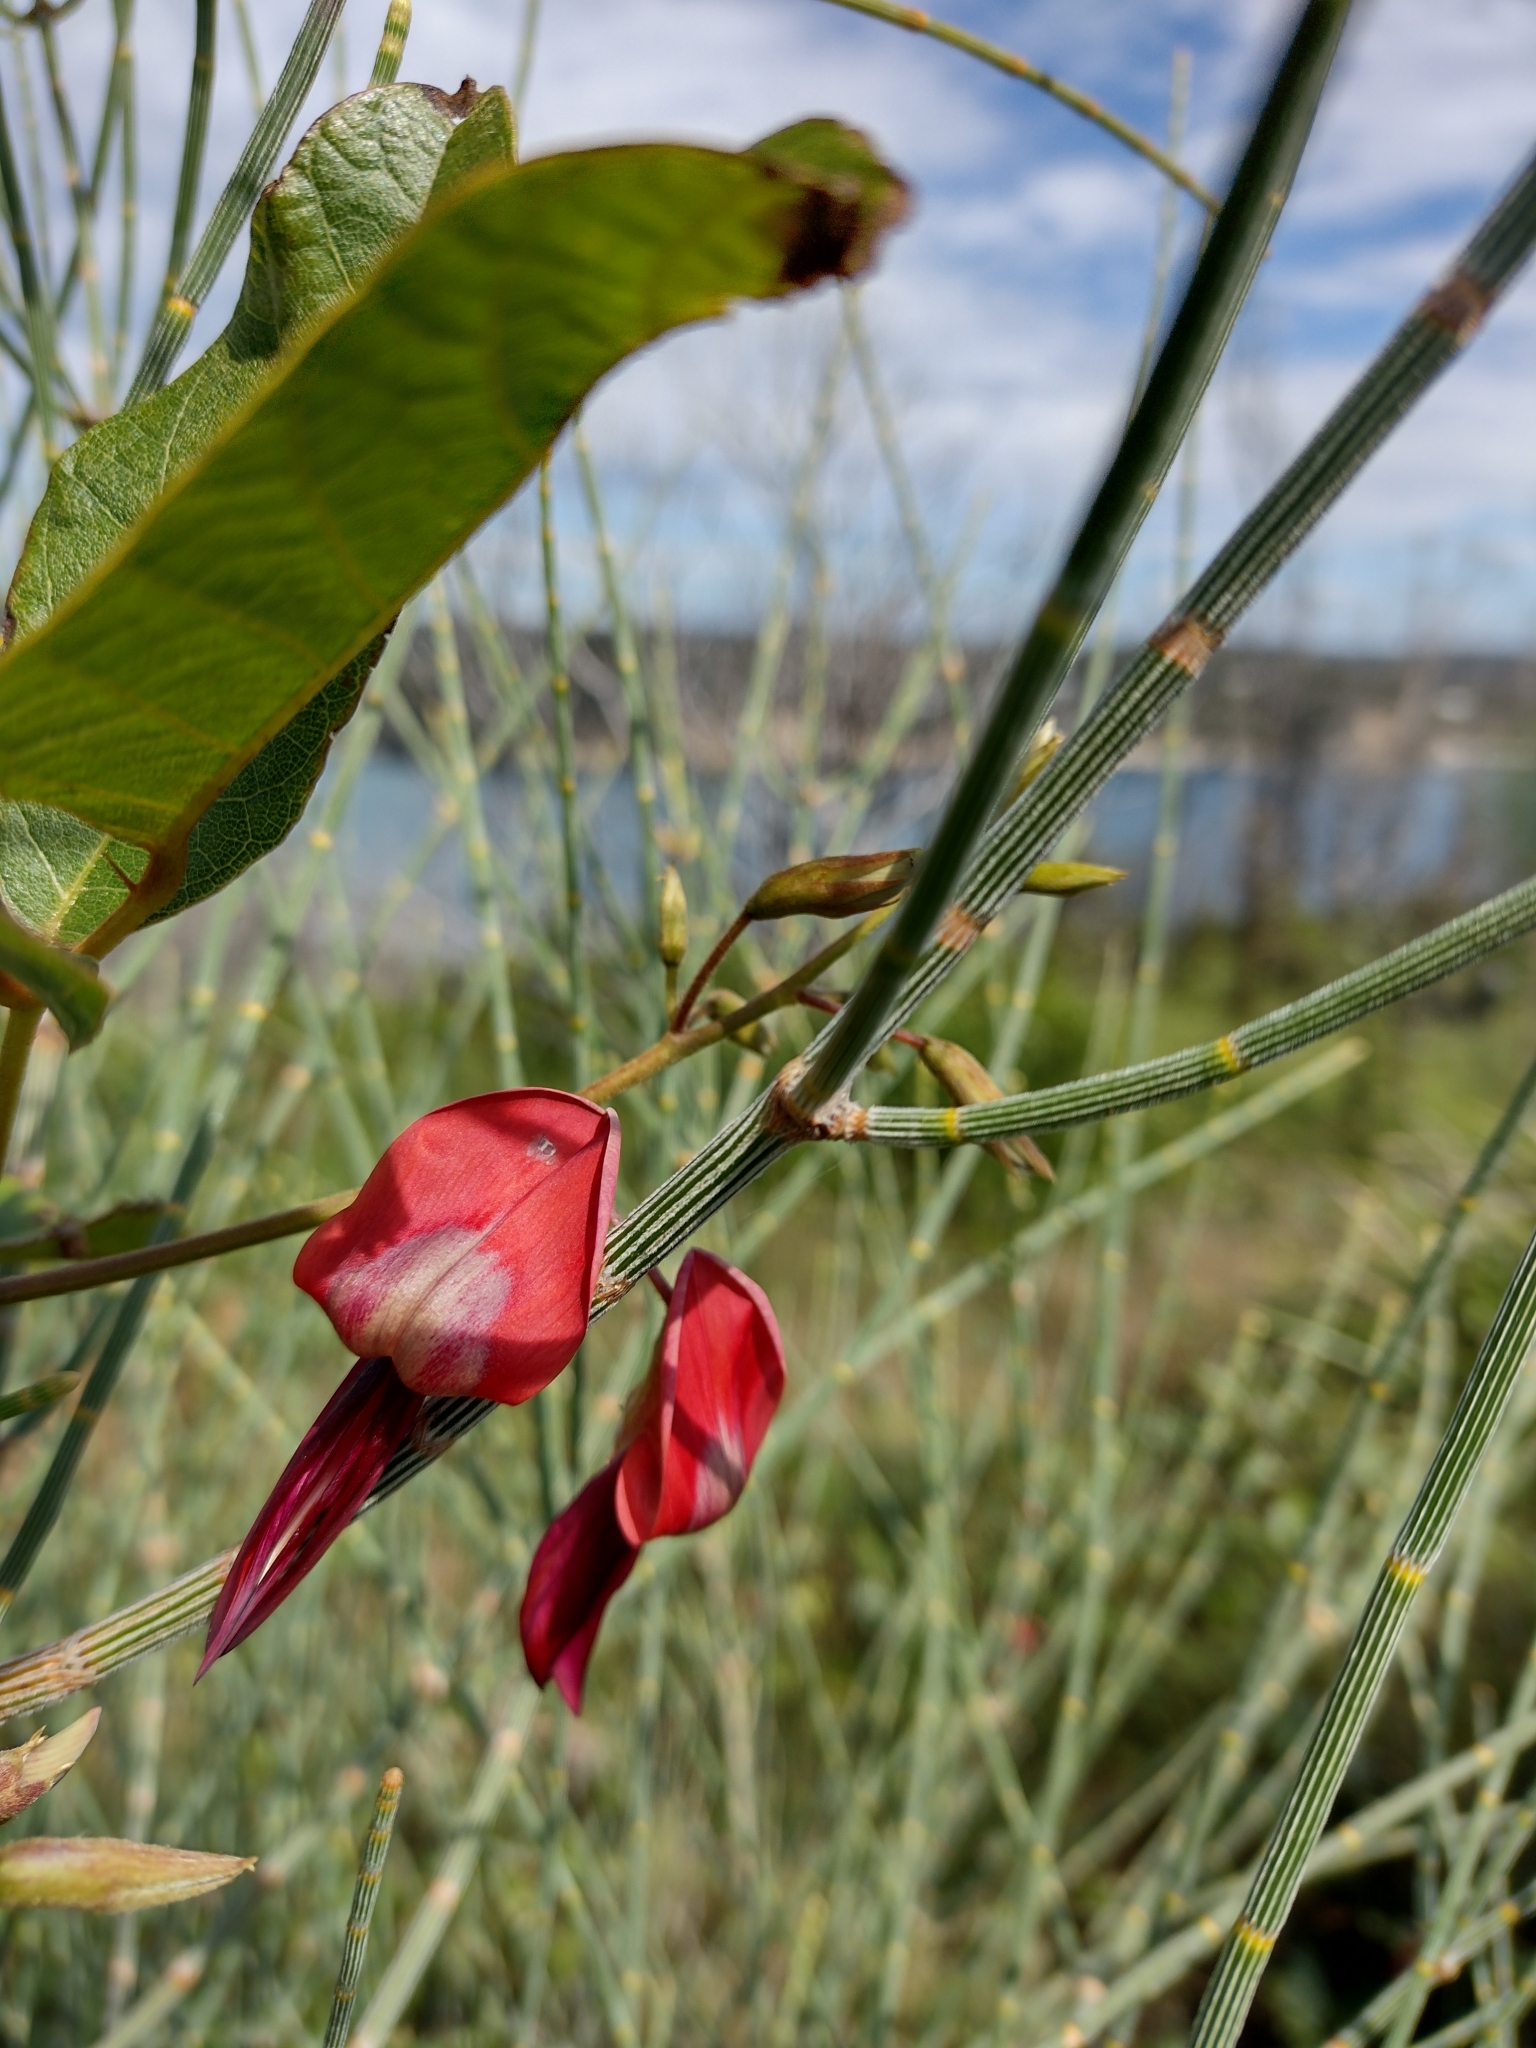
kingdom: Plantae
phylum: Tracheophyta
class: Magnoliopsida
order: Fabales
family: Fabaceae
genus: Kennedia
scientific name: Kennedia rubicunda
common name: Red kennedy-pea
